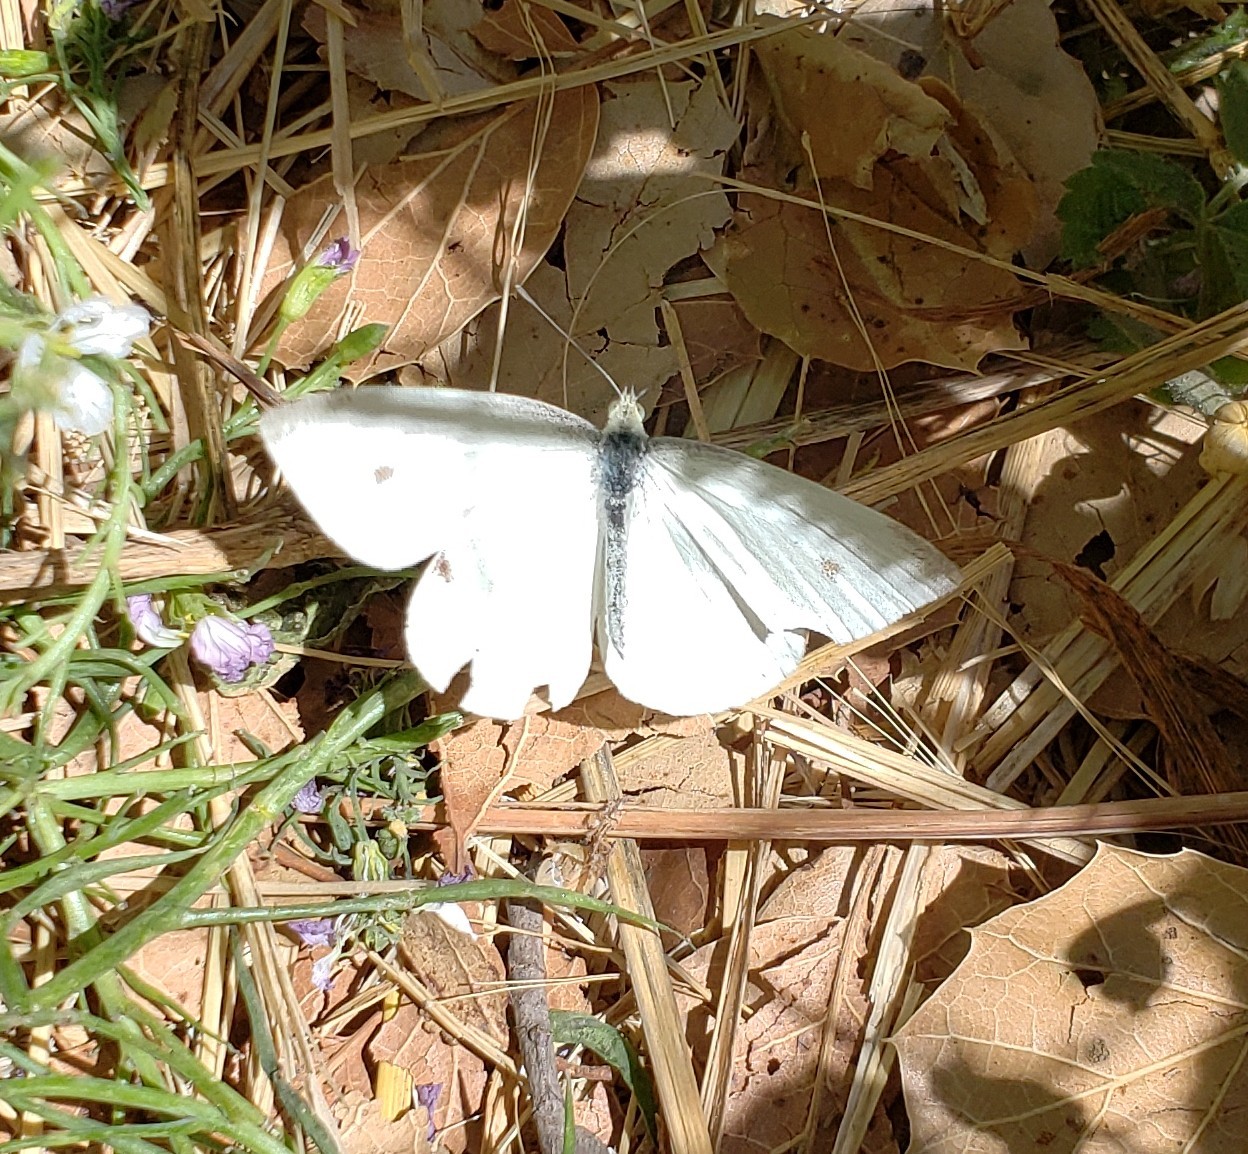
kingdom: Animalia
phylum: Arthropoda
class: Insecta
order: Lepidoptera
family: Pieridae
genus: Pieris
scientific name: Pieris rapae
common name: Small white
